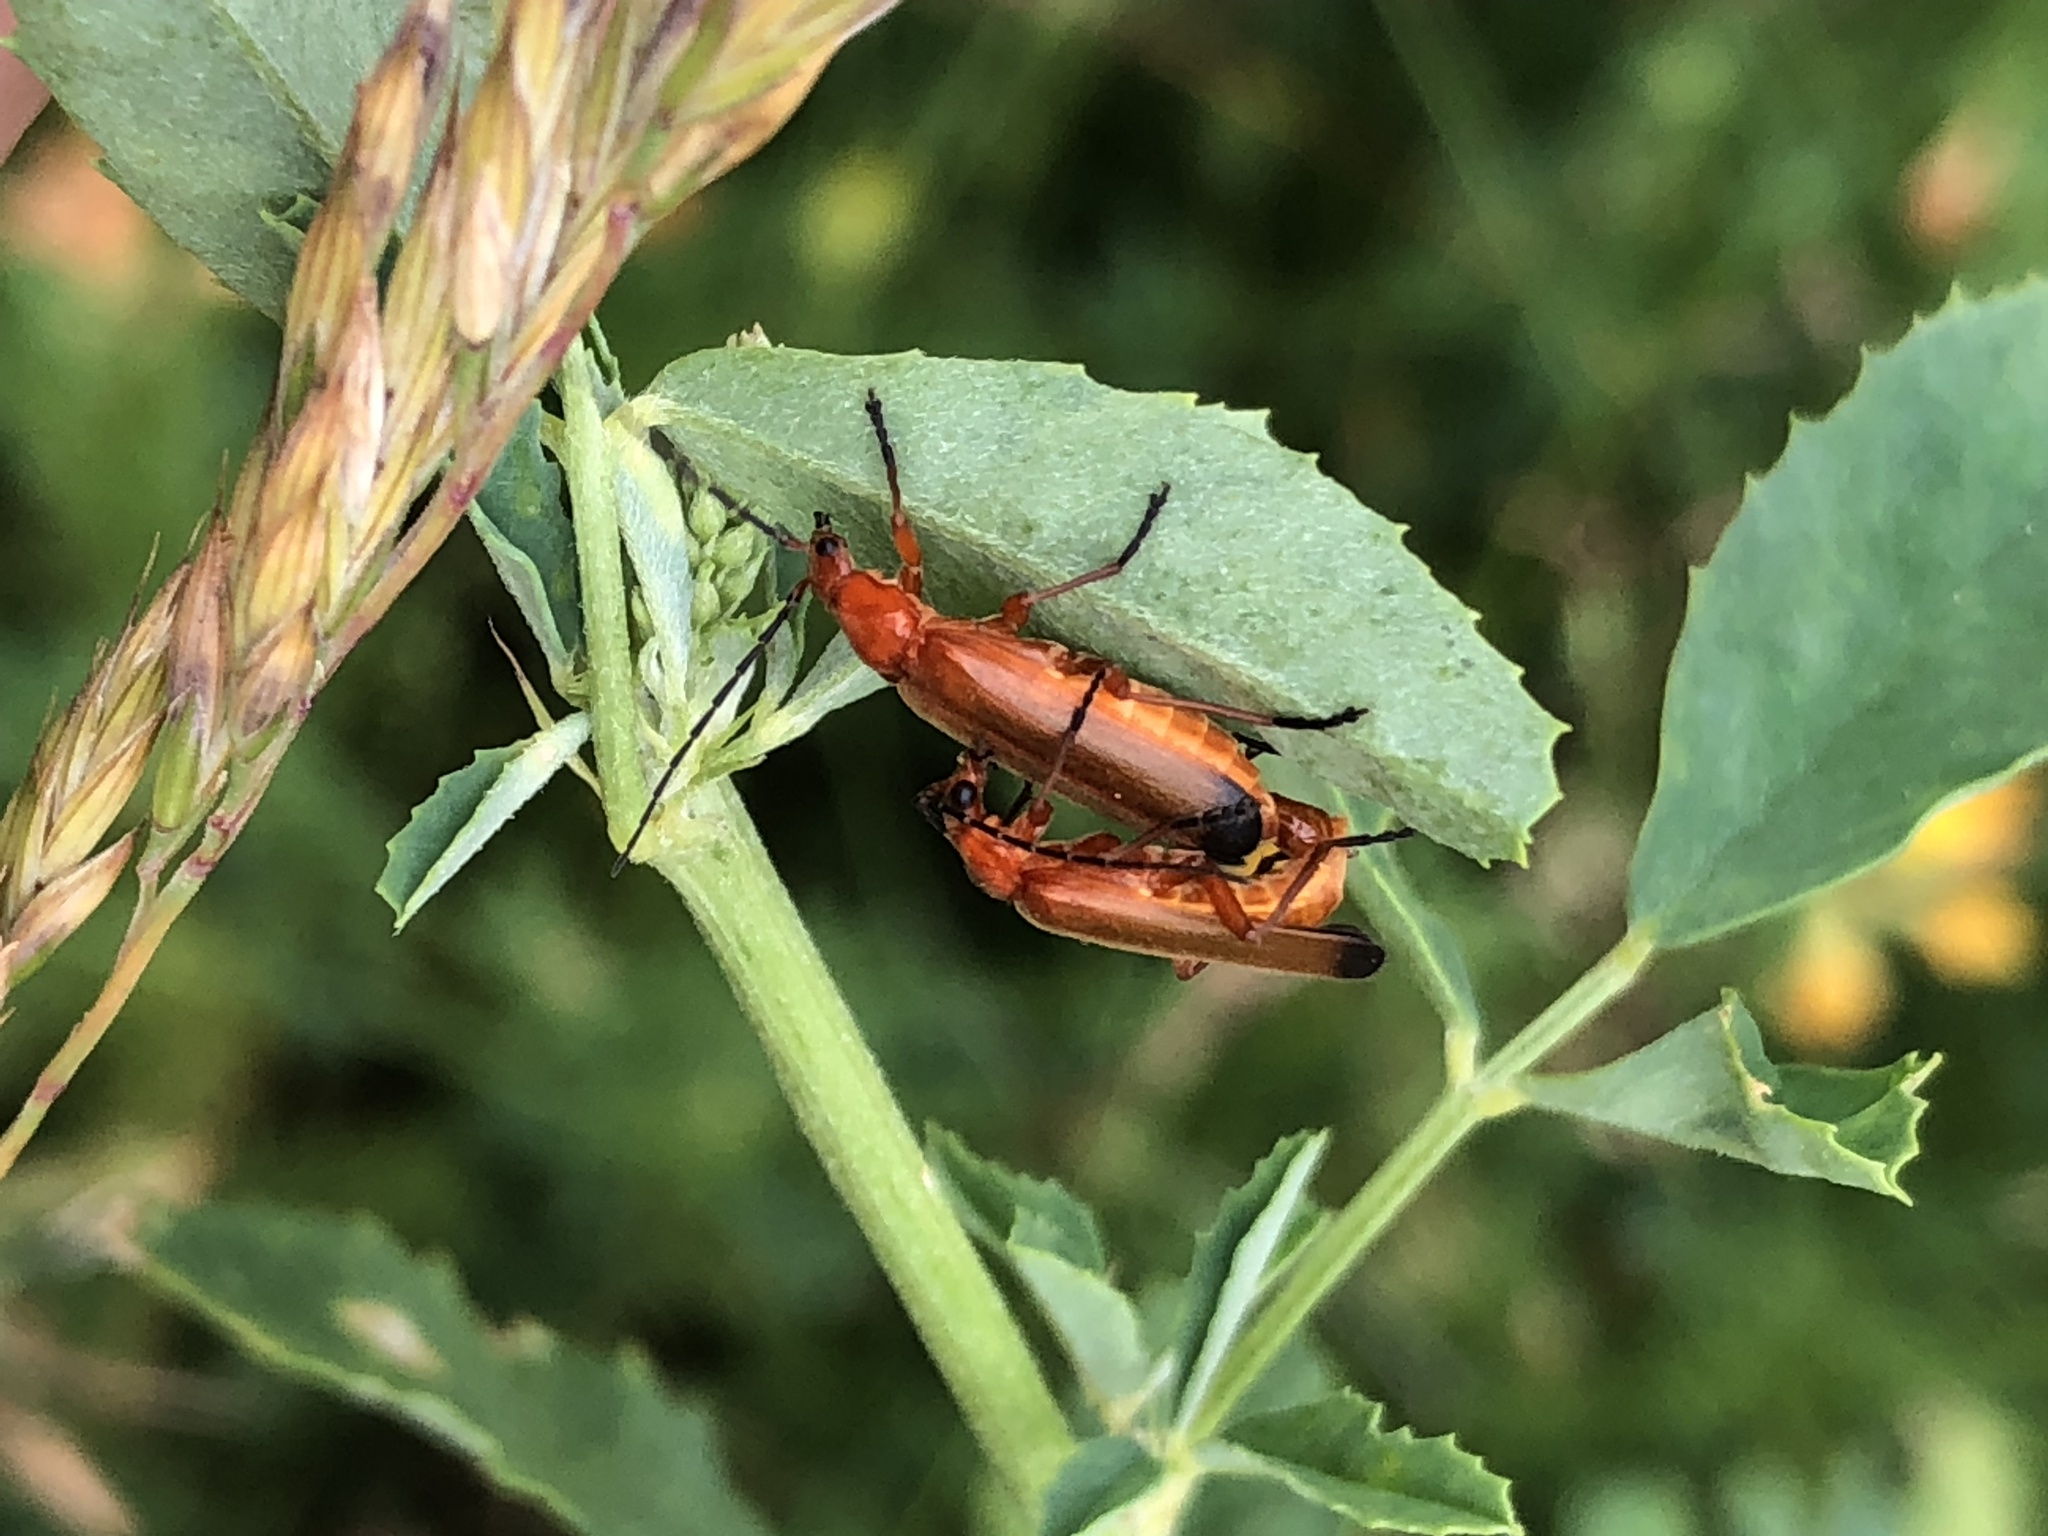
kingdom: Animalia
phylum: Arthropoda
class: Insecta
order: Coleoptera
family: Cantharidae
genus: Rhagonycha
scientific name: Rhagonycha fulva
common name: Common red soldier beetle
